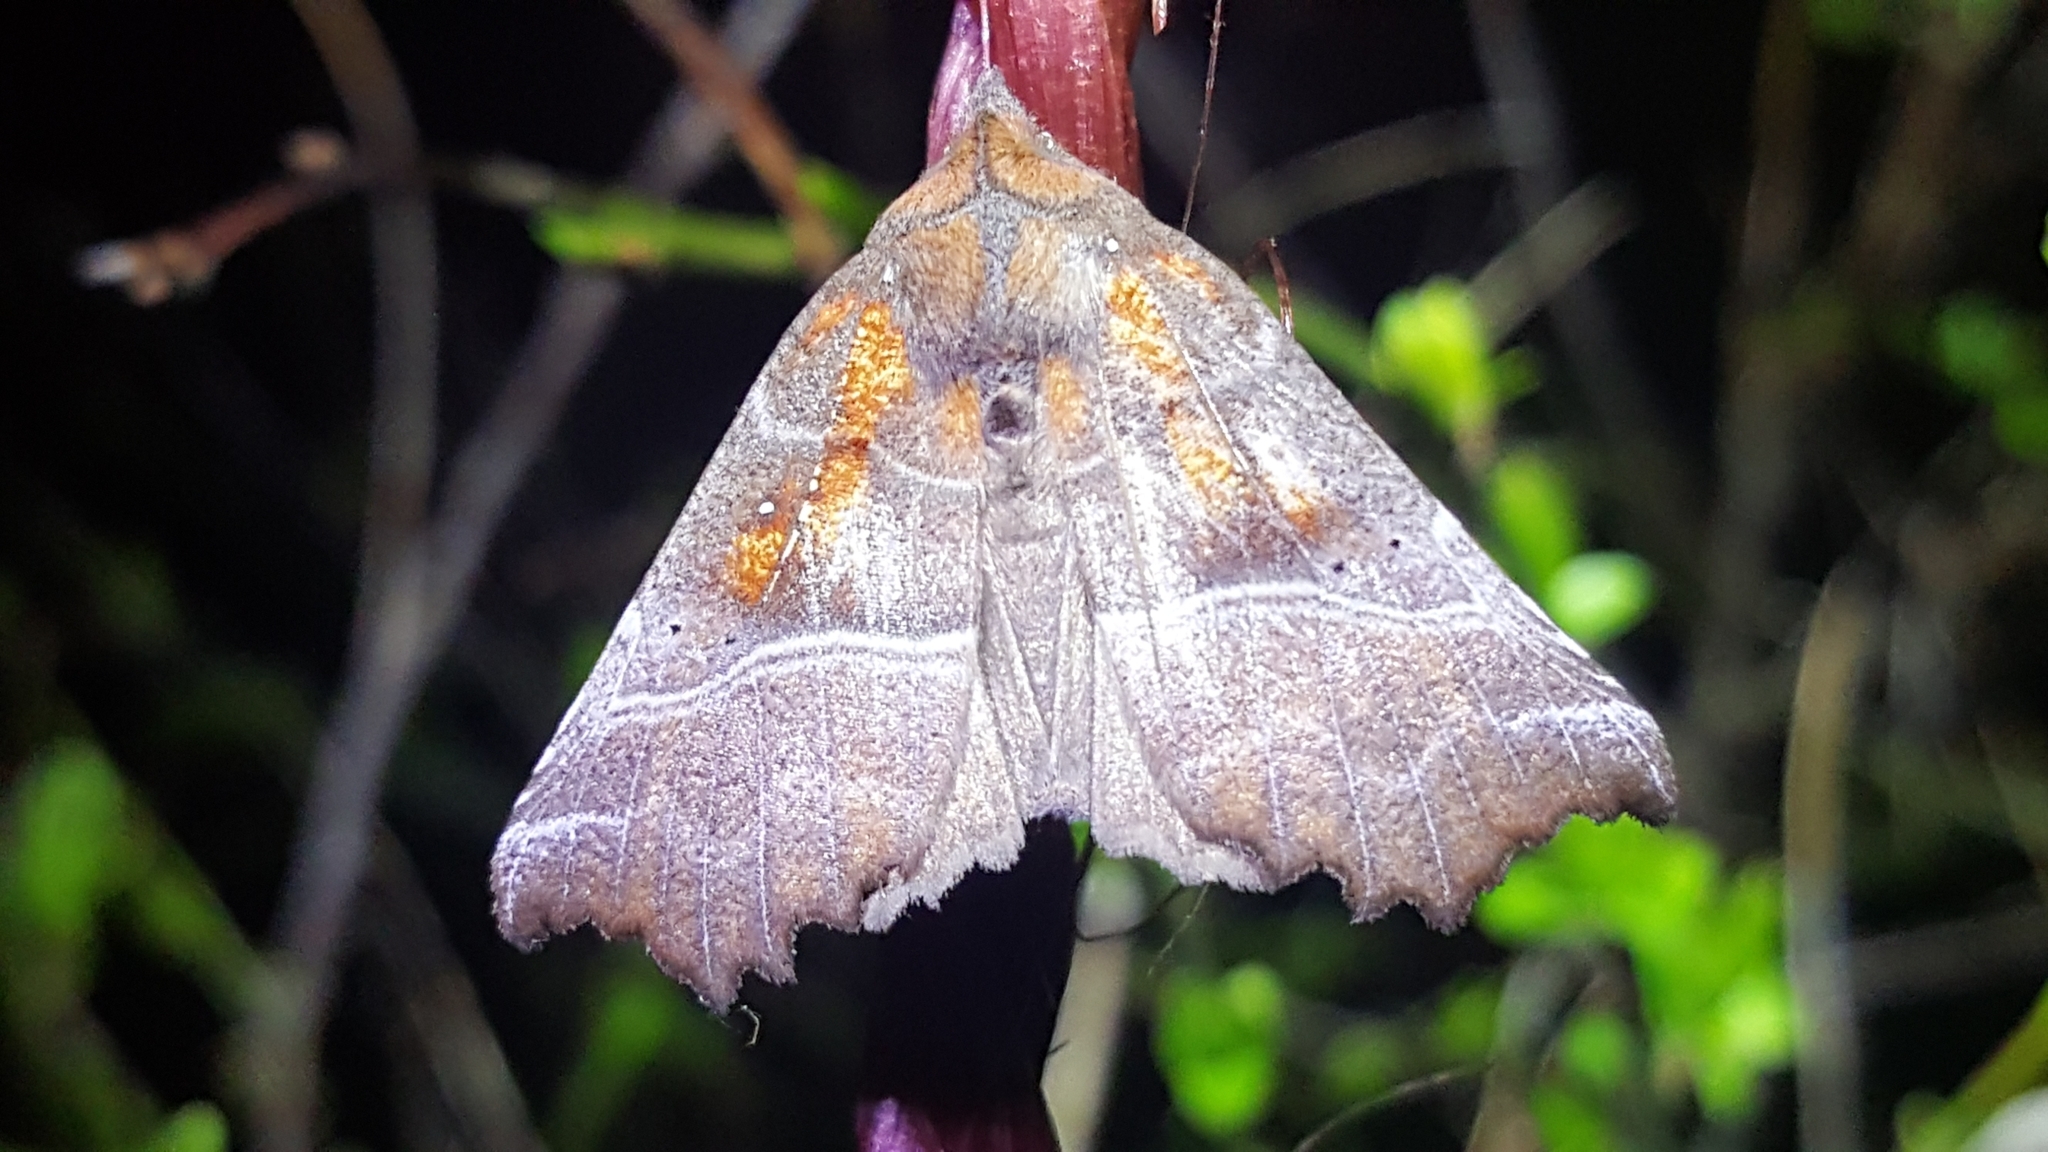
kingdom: Animalia
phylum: Arthropoda
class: Insecta
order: Lepidoptera
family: Erebidae
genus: Scoliopteryx
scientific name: Scoliopteryx libatrix
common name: Herald
